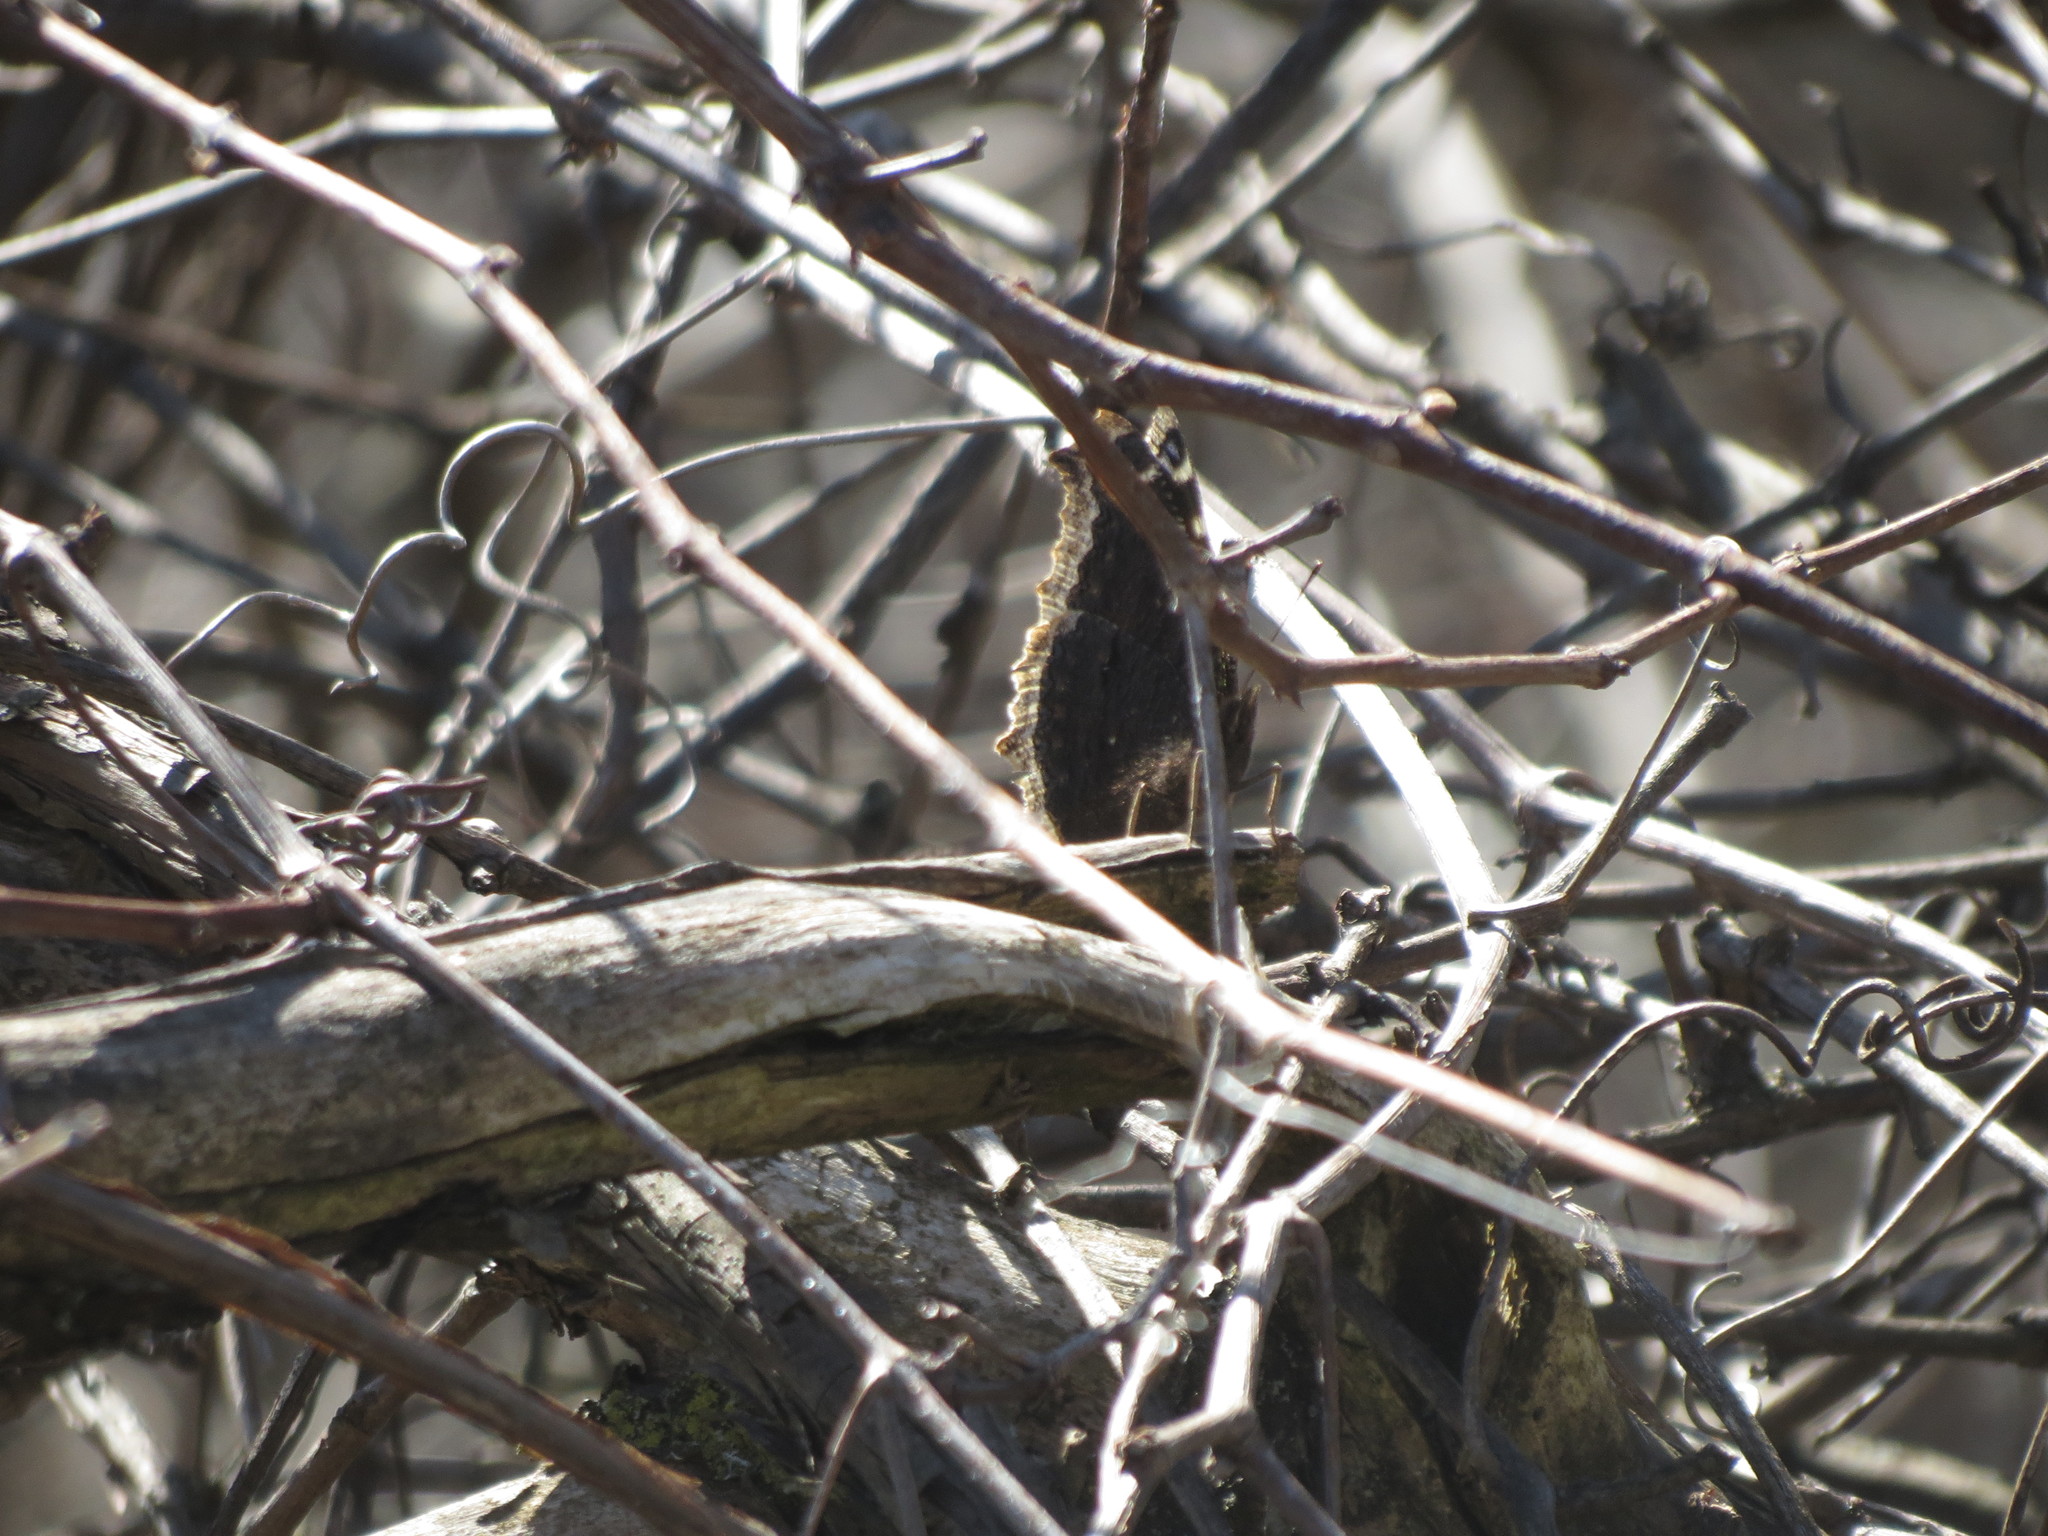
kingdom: Animalia
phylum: Arthropoda
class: Insecta
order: Lepidoptera
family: Nymphalidae
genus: Nymphalis
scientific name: Nymphalis antiopa
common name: Camberwell beauty
